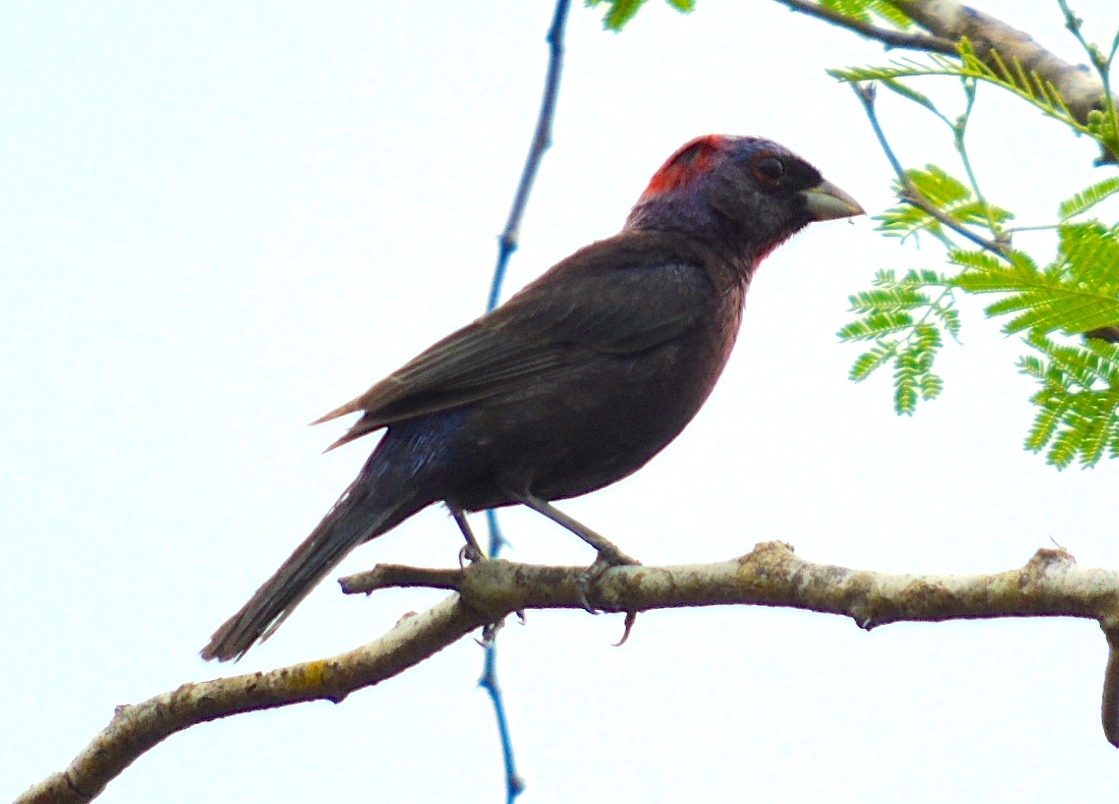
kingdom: Animalia
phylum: Chordata
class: Aves
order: Passeriformes
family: Cardinalidae
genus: Passerina
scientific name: Passerina versicolor
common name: Varied bunting
